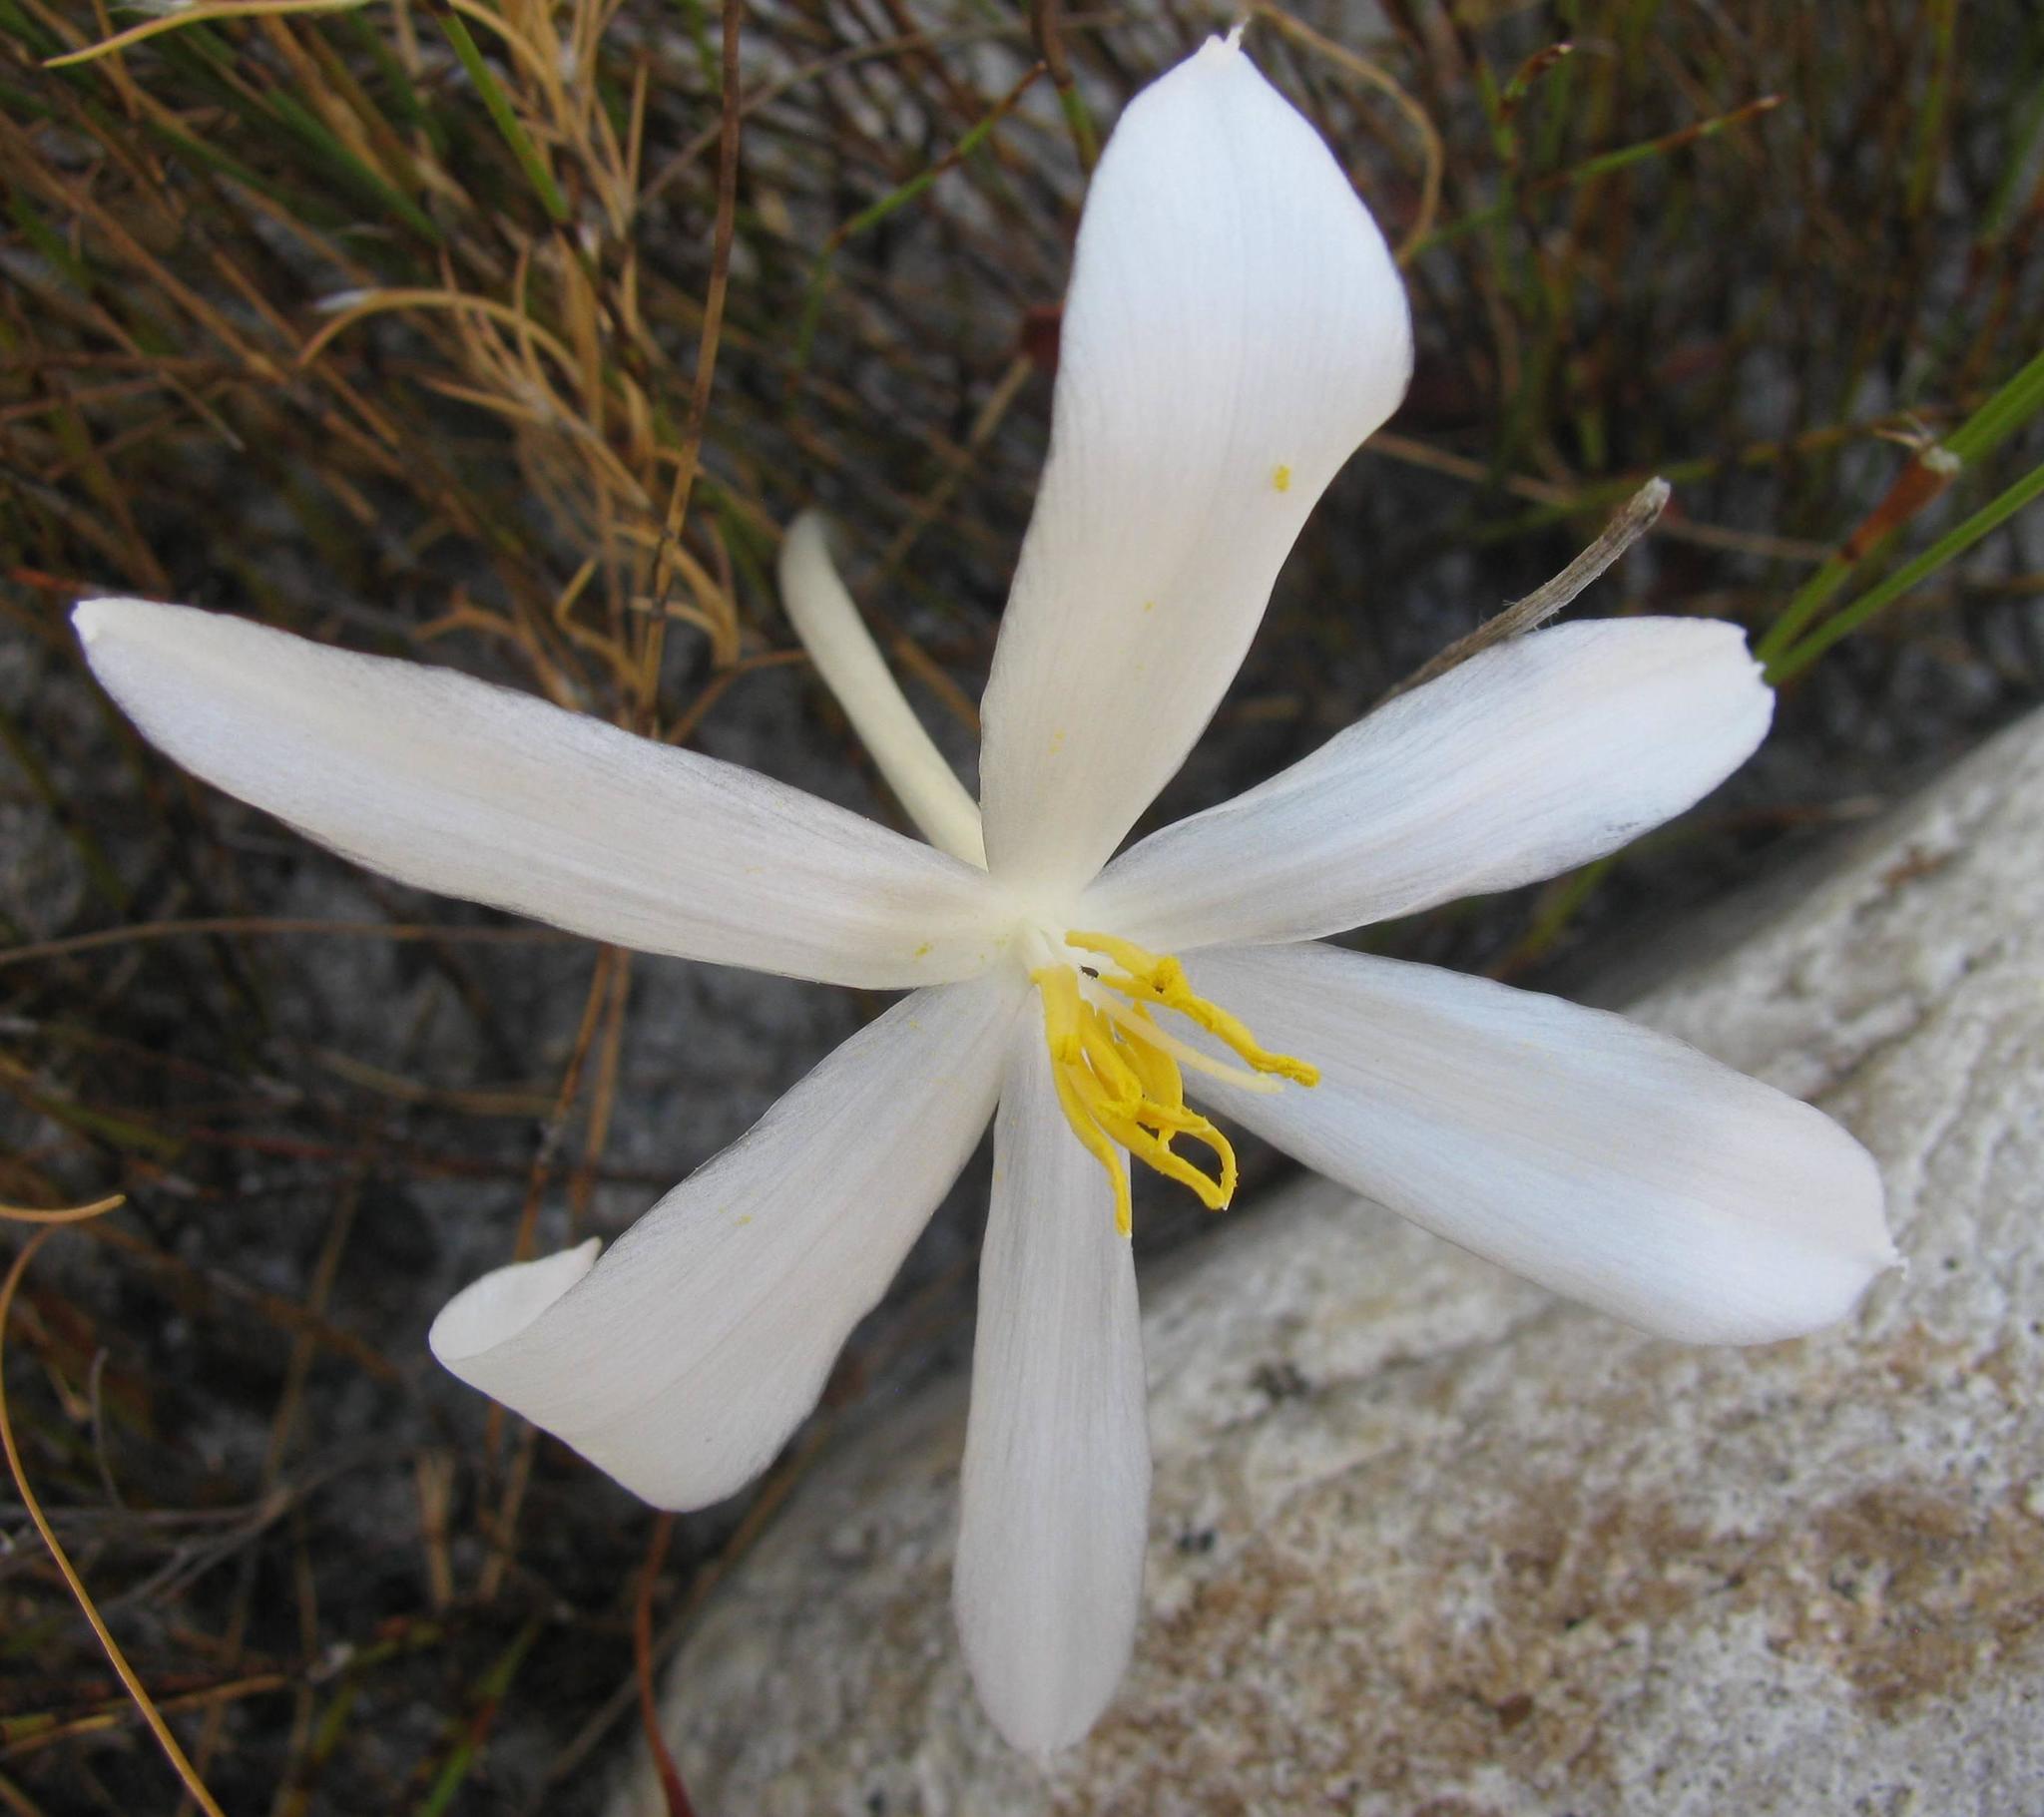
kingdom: Plantae
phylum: Tracheophyta
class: Liliopsida
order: Asparagales
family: Amaryllidaceae
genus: Gethyllis
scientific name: Gethyllis afra
